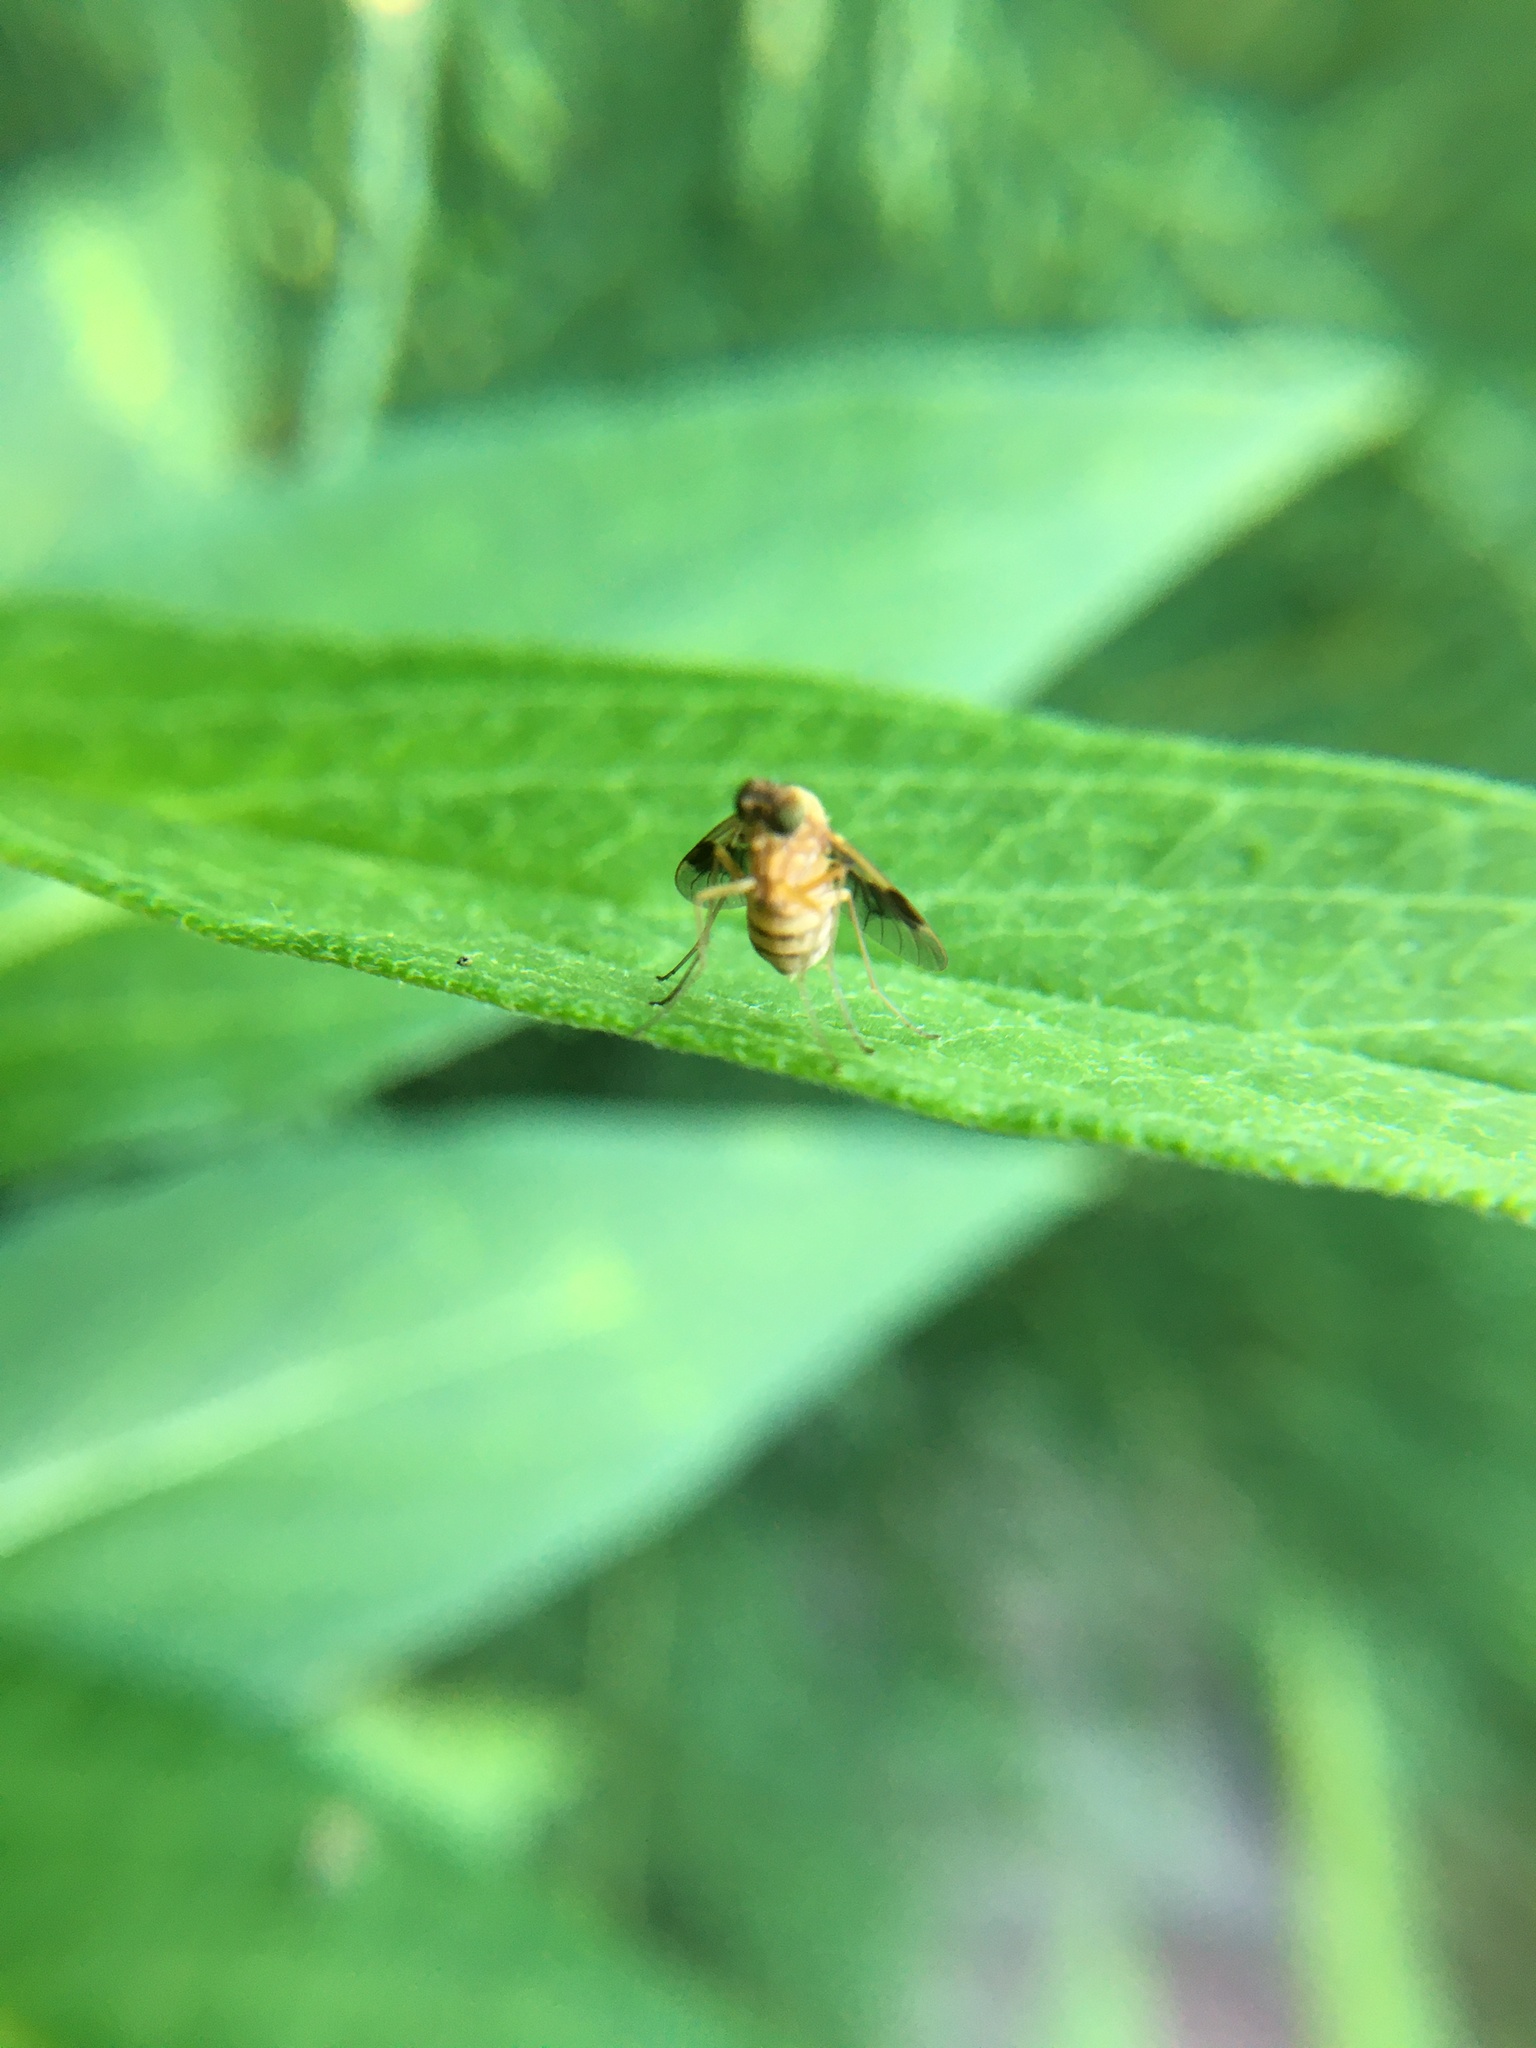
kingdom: Animalia
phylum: Arthropoda
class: Insecta
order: Diptera
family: Rhagionidae
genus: Chrysopilus
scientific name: Chrysopilus quadratus
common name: Quadrate snipe fly
